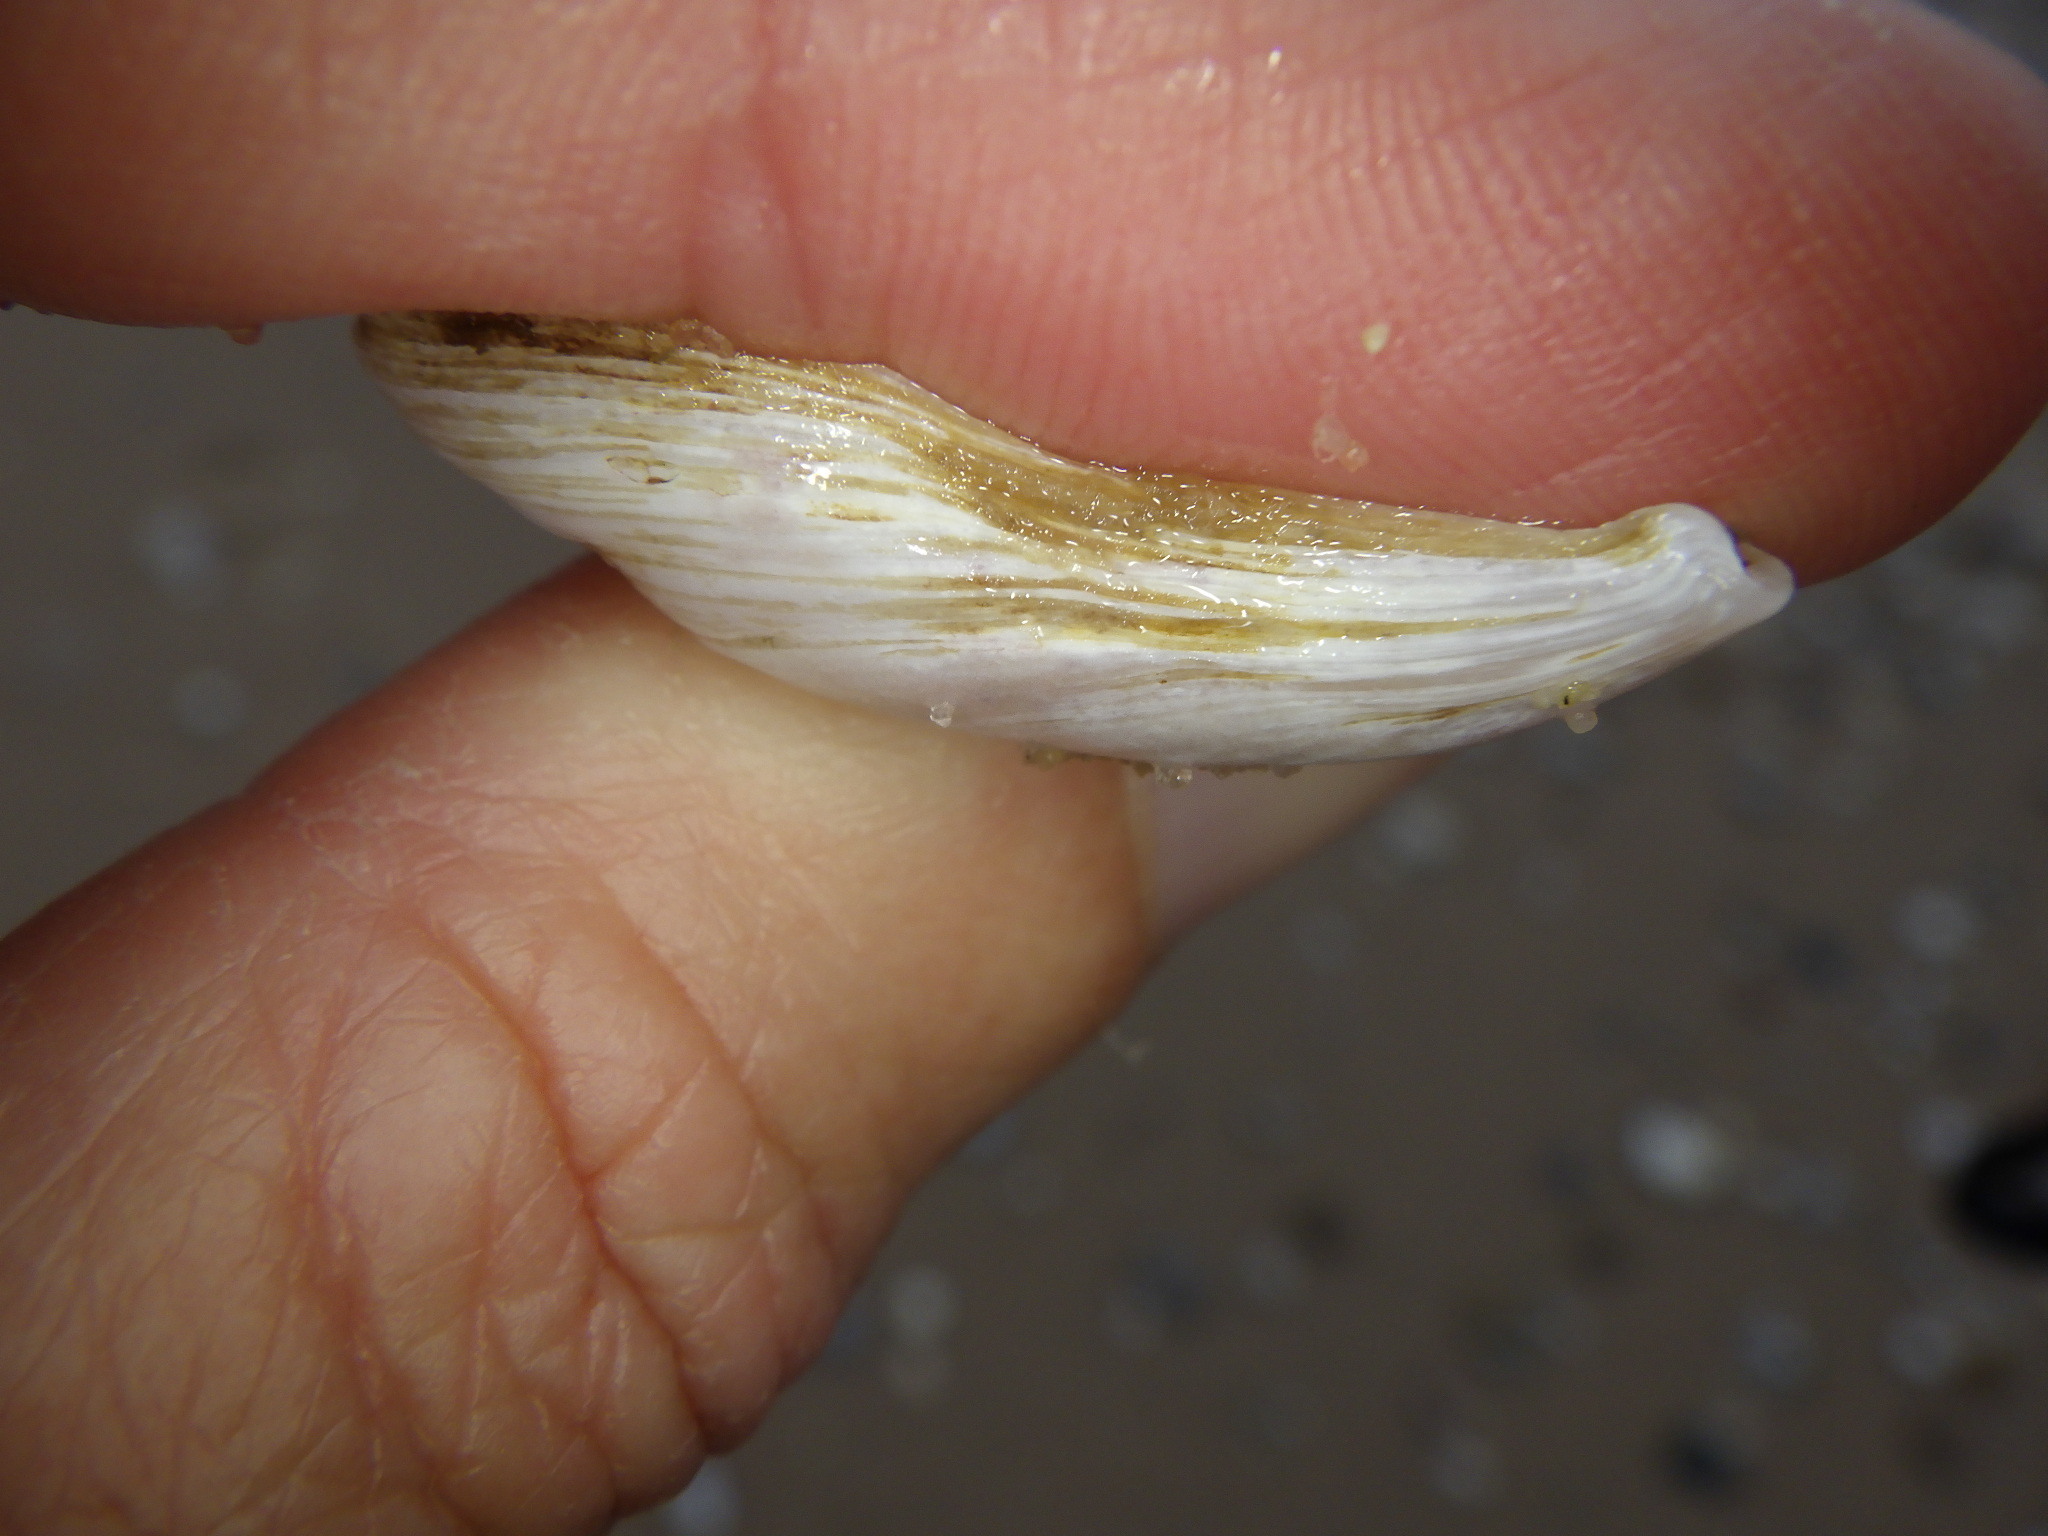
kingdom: Animalia
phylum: Mollusca
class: Bivalvia
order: Myida
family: Dreissenidae
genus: Dreissena
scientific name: Dreissena bugensis
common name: Quagga mussel
